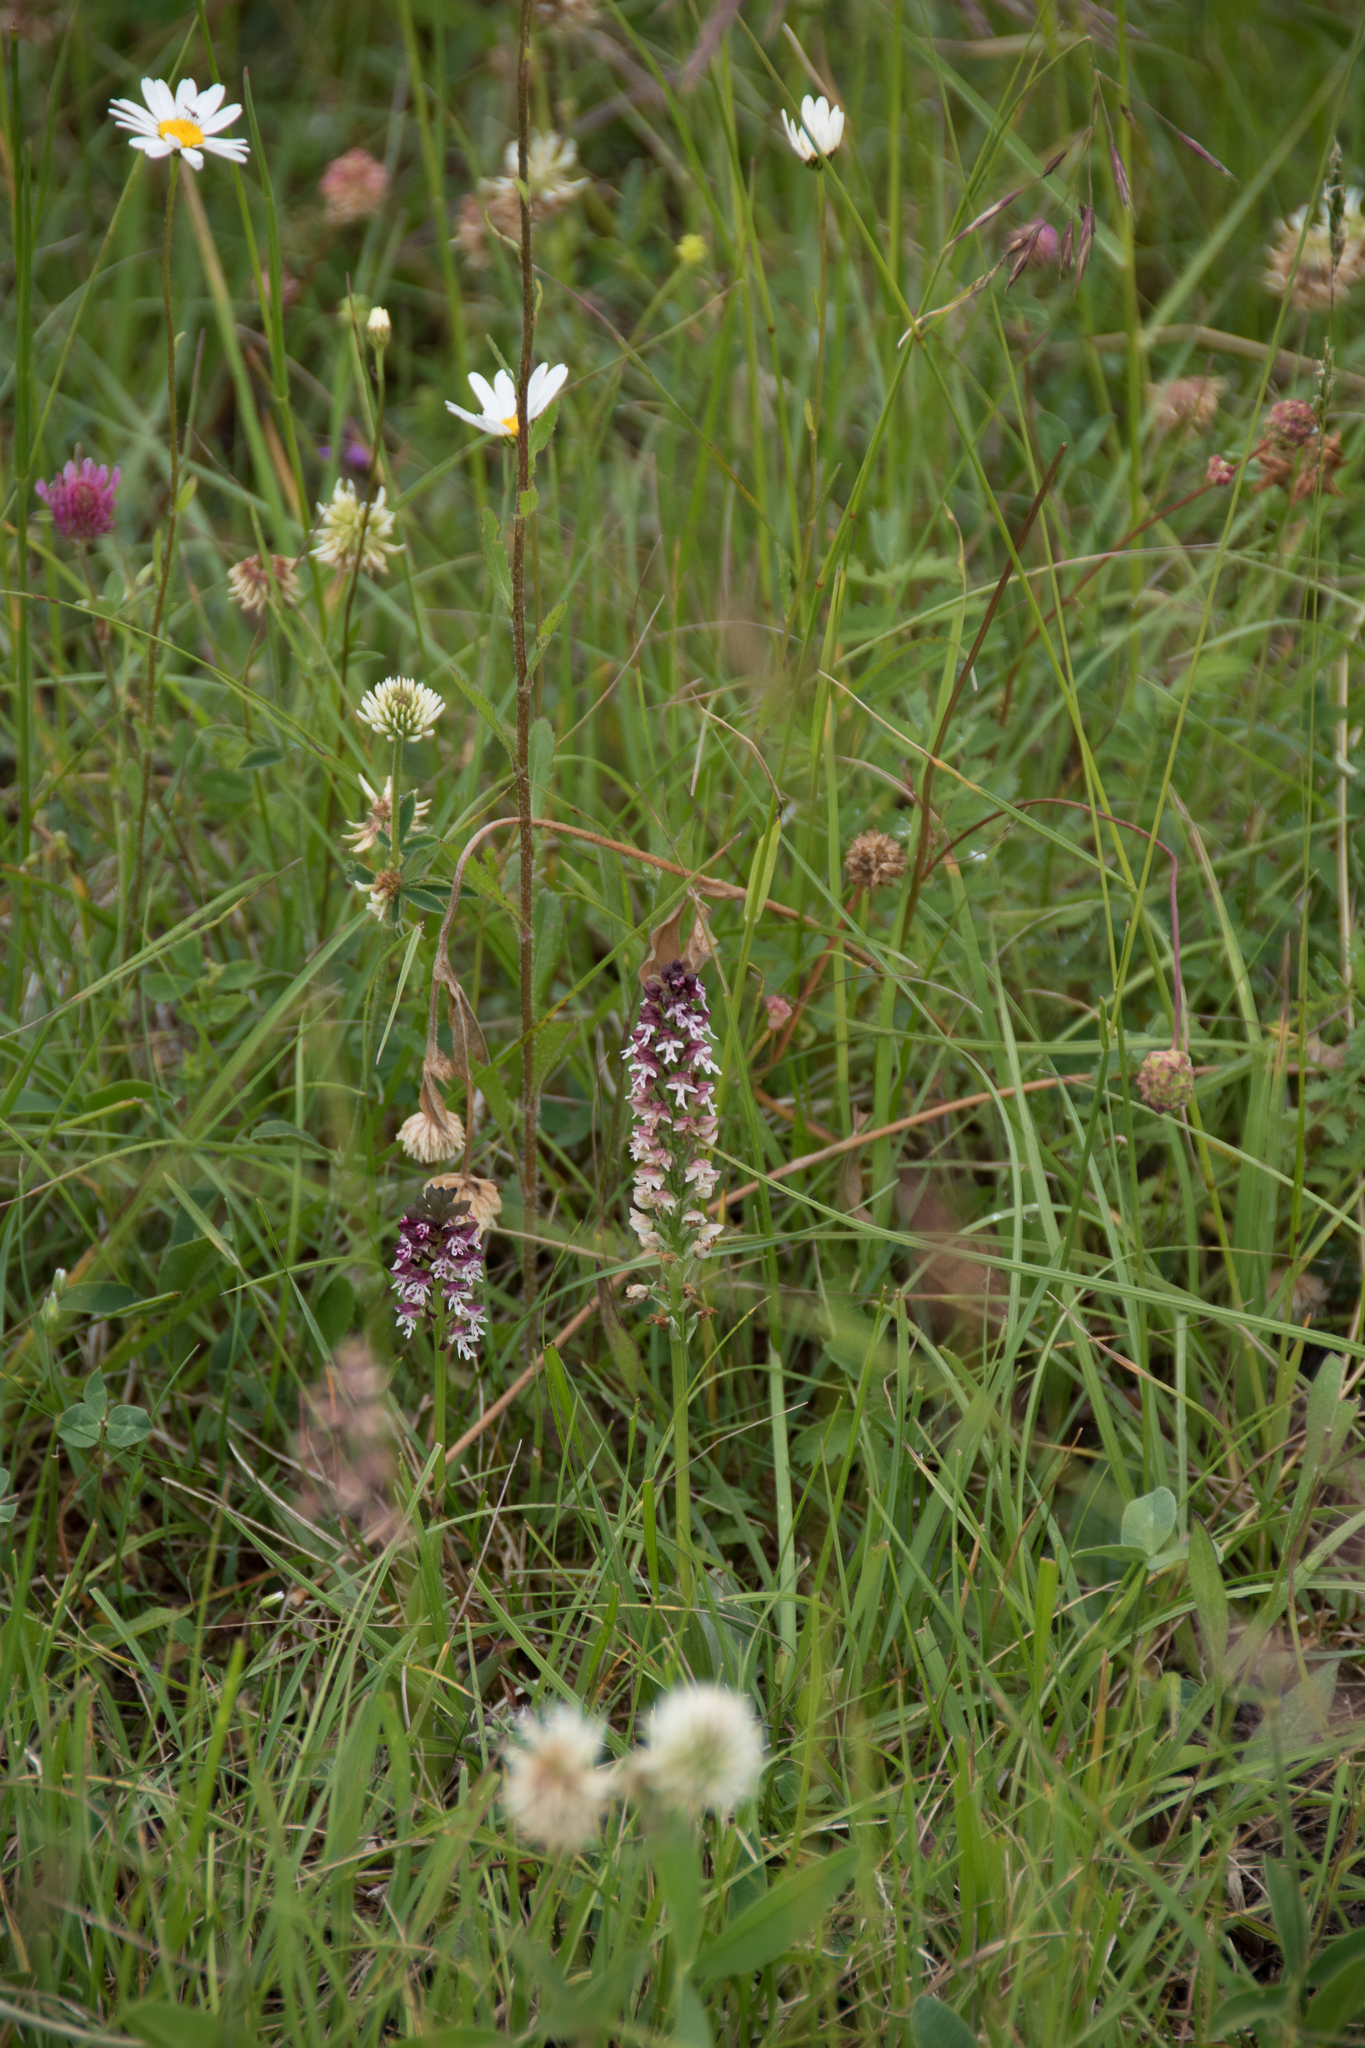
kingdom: Plantae
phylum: Tracheophyta
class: Liliopsida
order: Asparagales
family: Orchidaceae
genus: Neotinea
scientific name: Neotinea ustulata
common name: Burnt orchid
